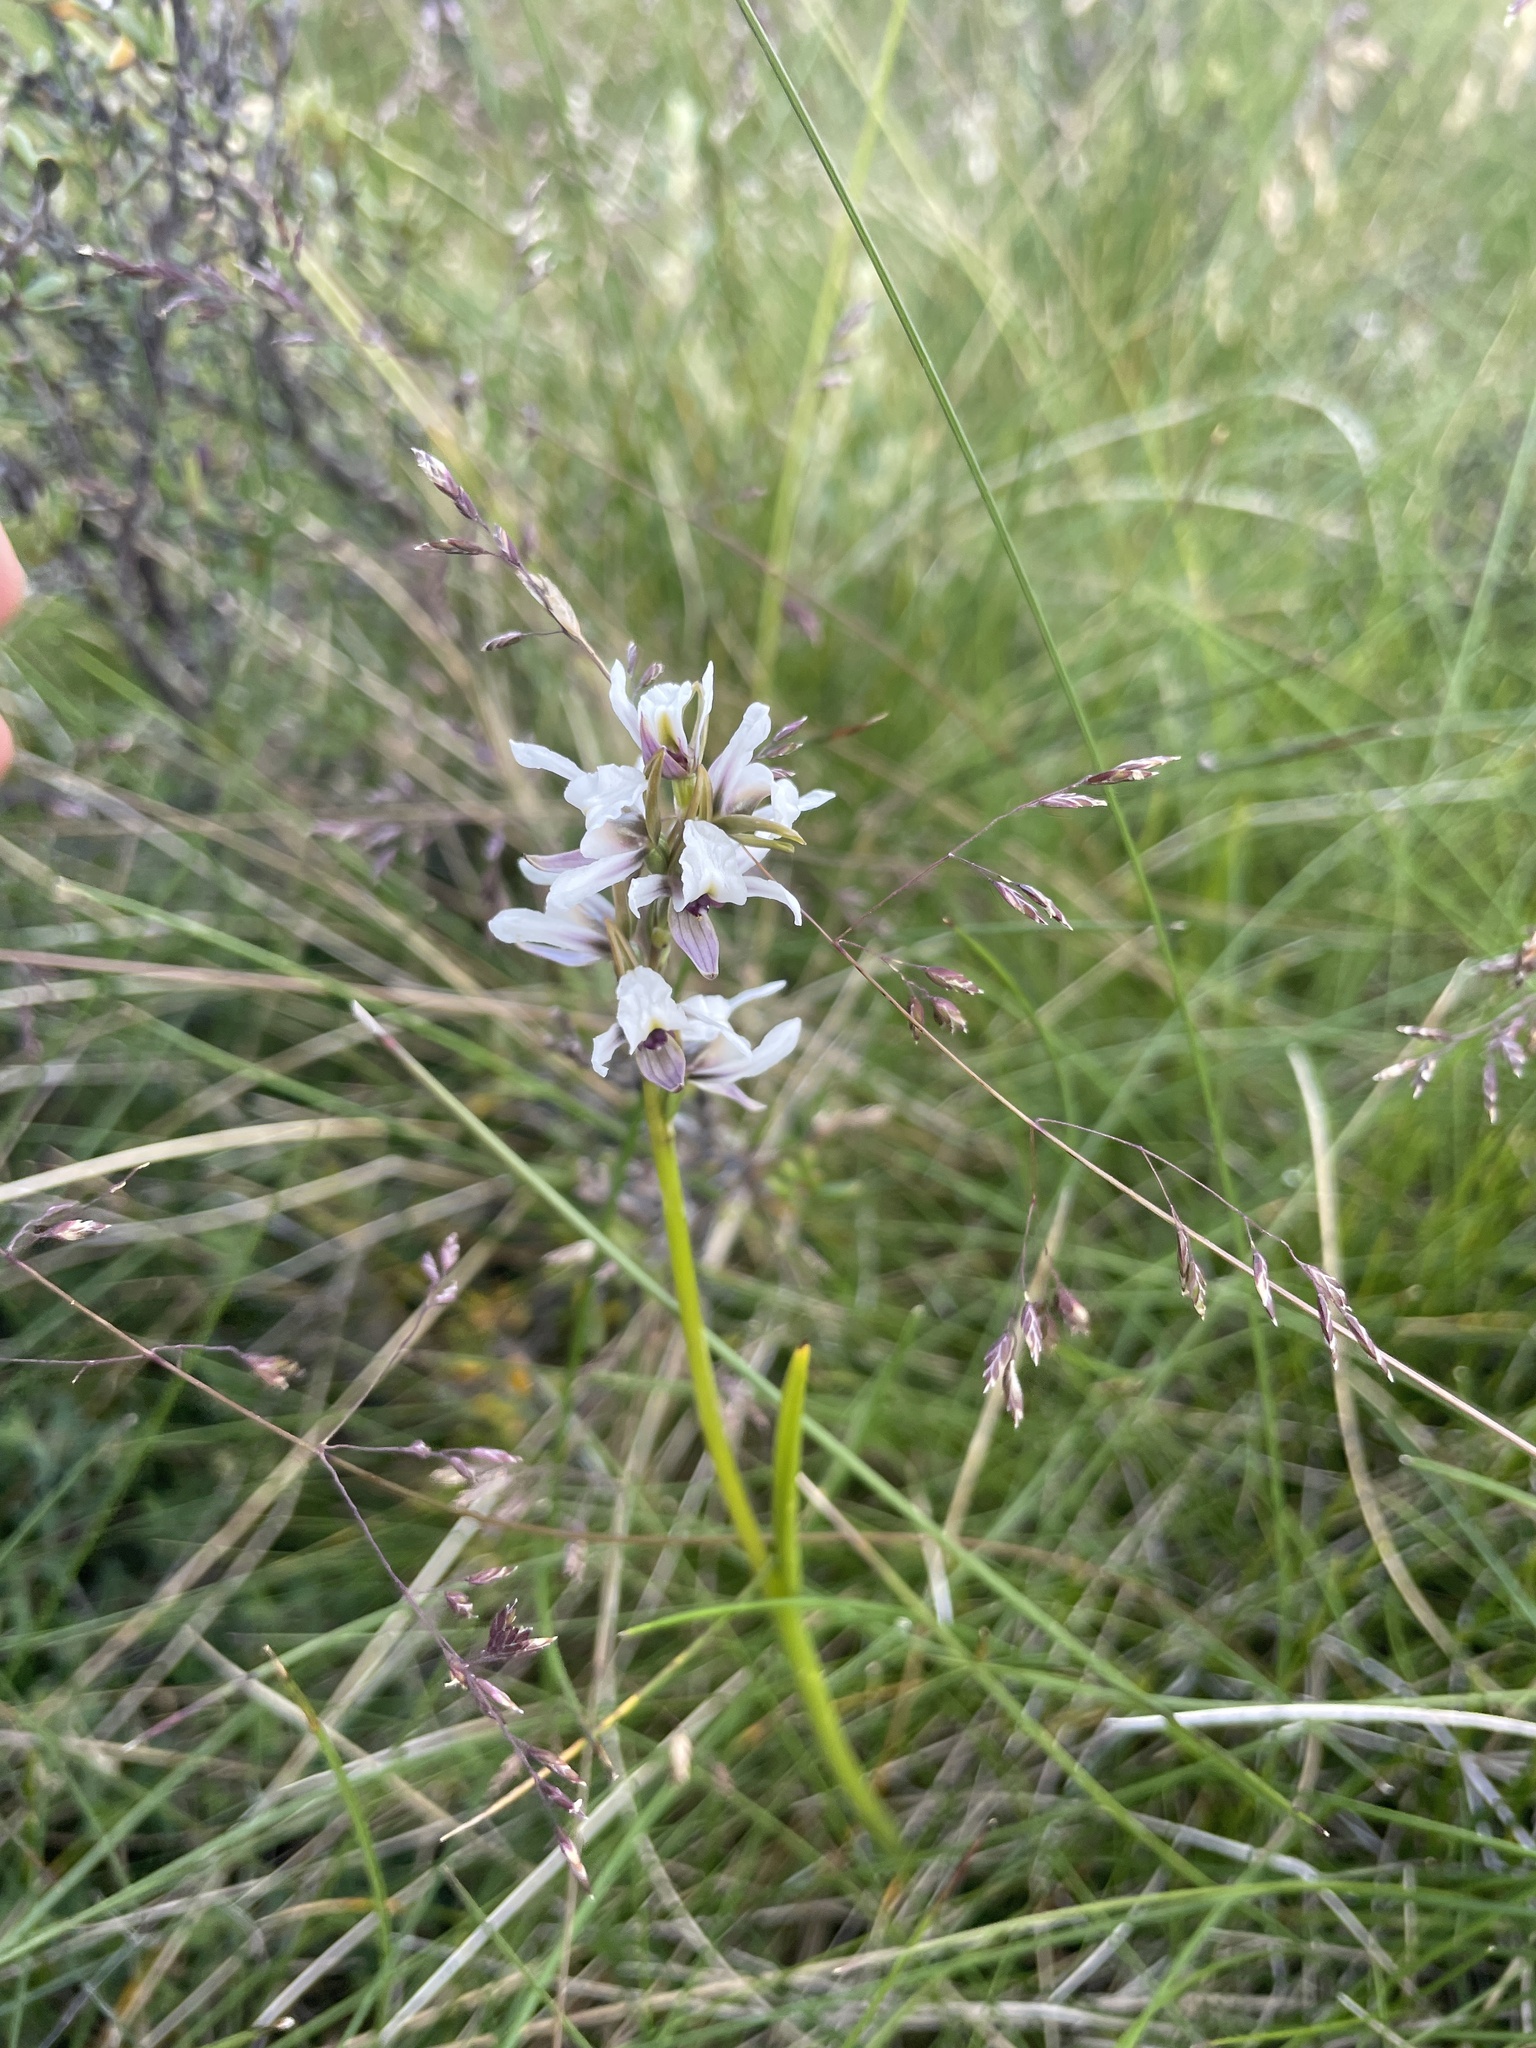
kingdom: Plantae
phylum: Tracheophyta
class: Liliopsida
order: Asparagales
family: Orchidaceae
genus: Prasophyllum
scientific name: Prasophyllum suttonii
